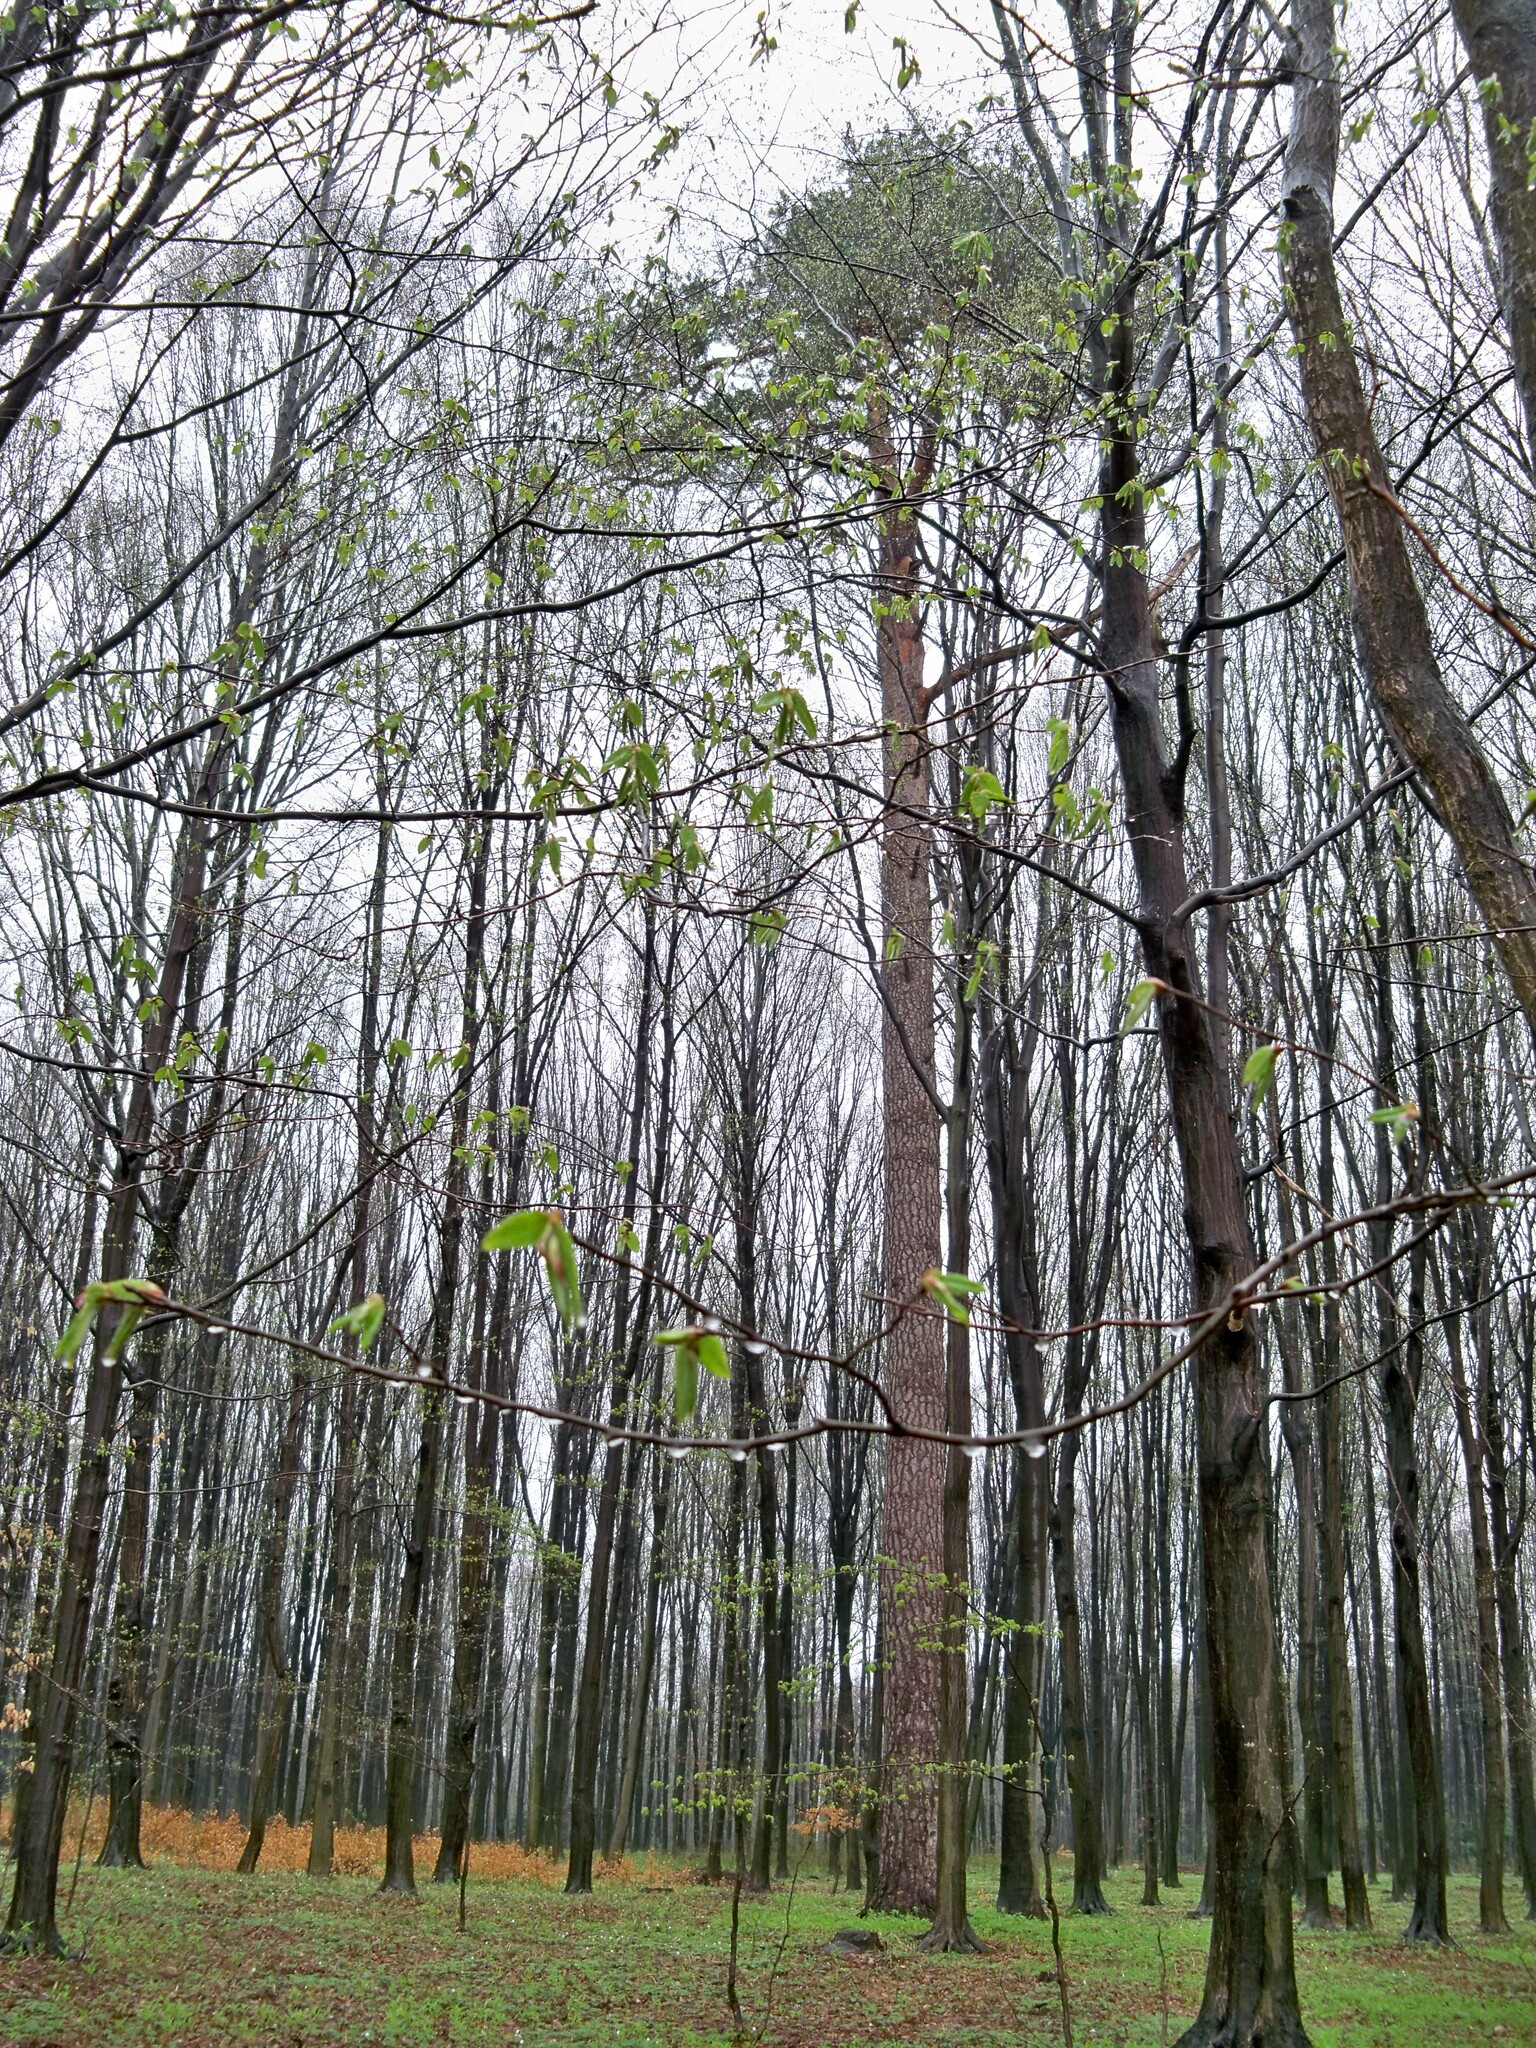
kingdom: Plantae
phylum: Tracheophyta
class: Pinopsida
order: Pinales
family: Pinaceae
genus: Pinus
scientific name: Pinus sylvestris
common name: Scots pine
